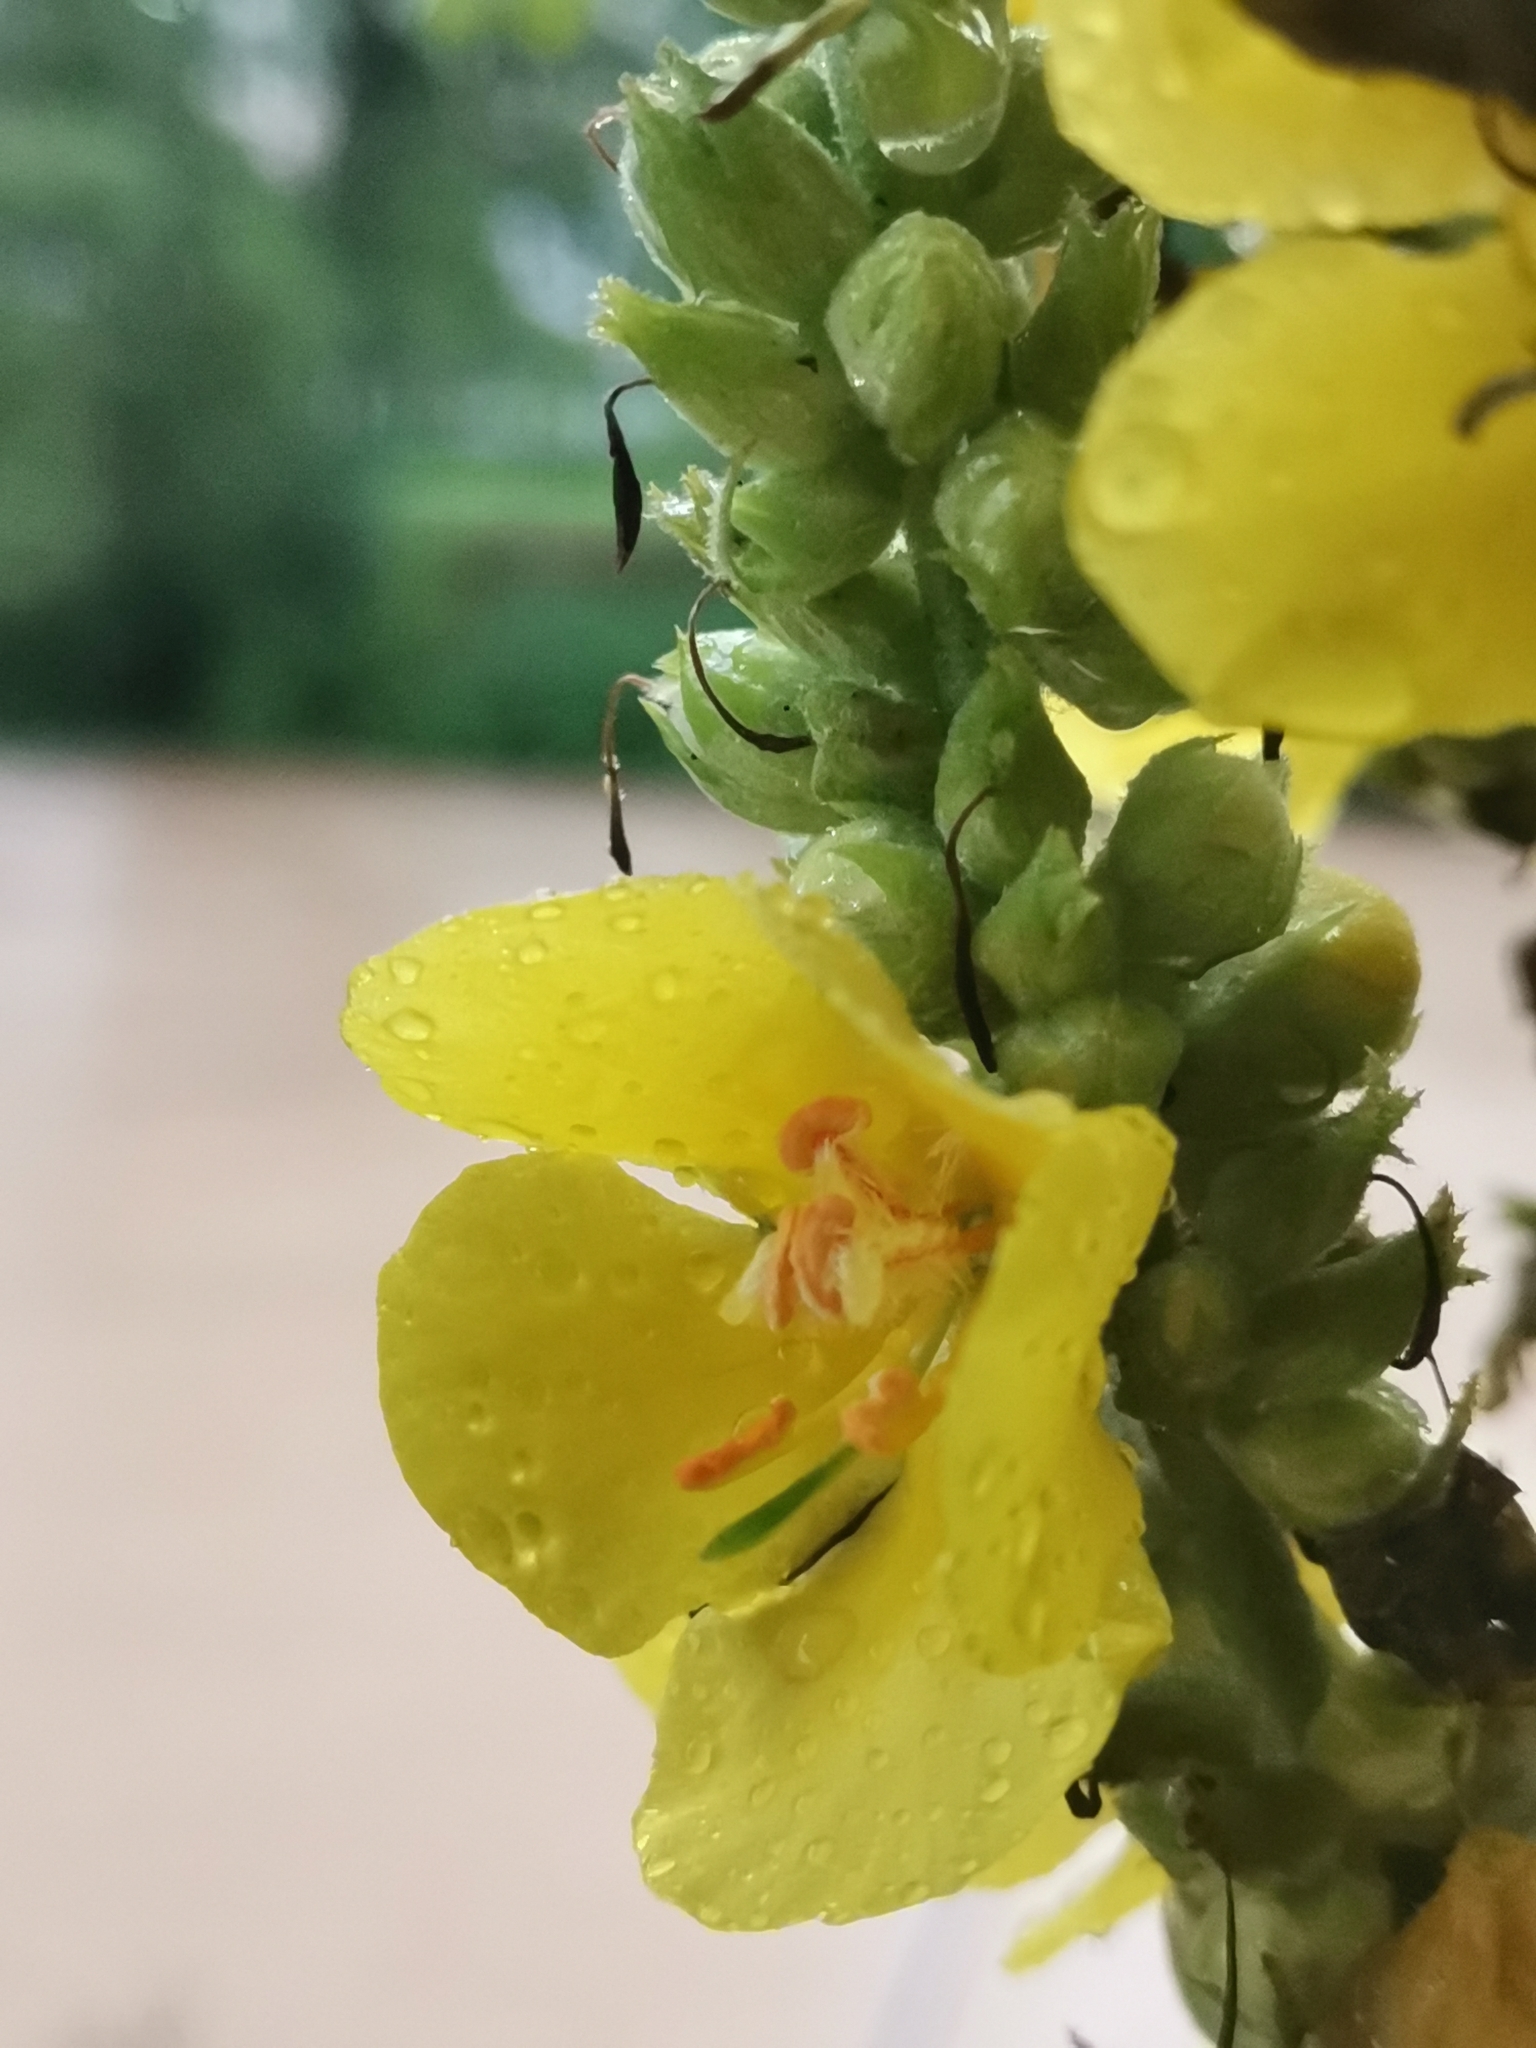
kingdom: Plantae
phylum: Tracheophyta
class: Magnoliopsida
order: Lamiales
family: Scrophulariaceae
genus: Verbascum
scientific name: Verbascum phlomoides
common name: Orange mullein
